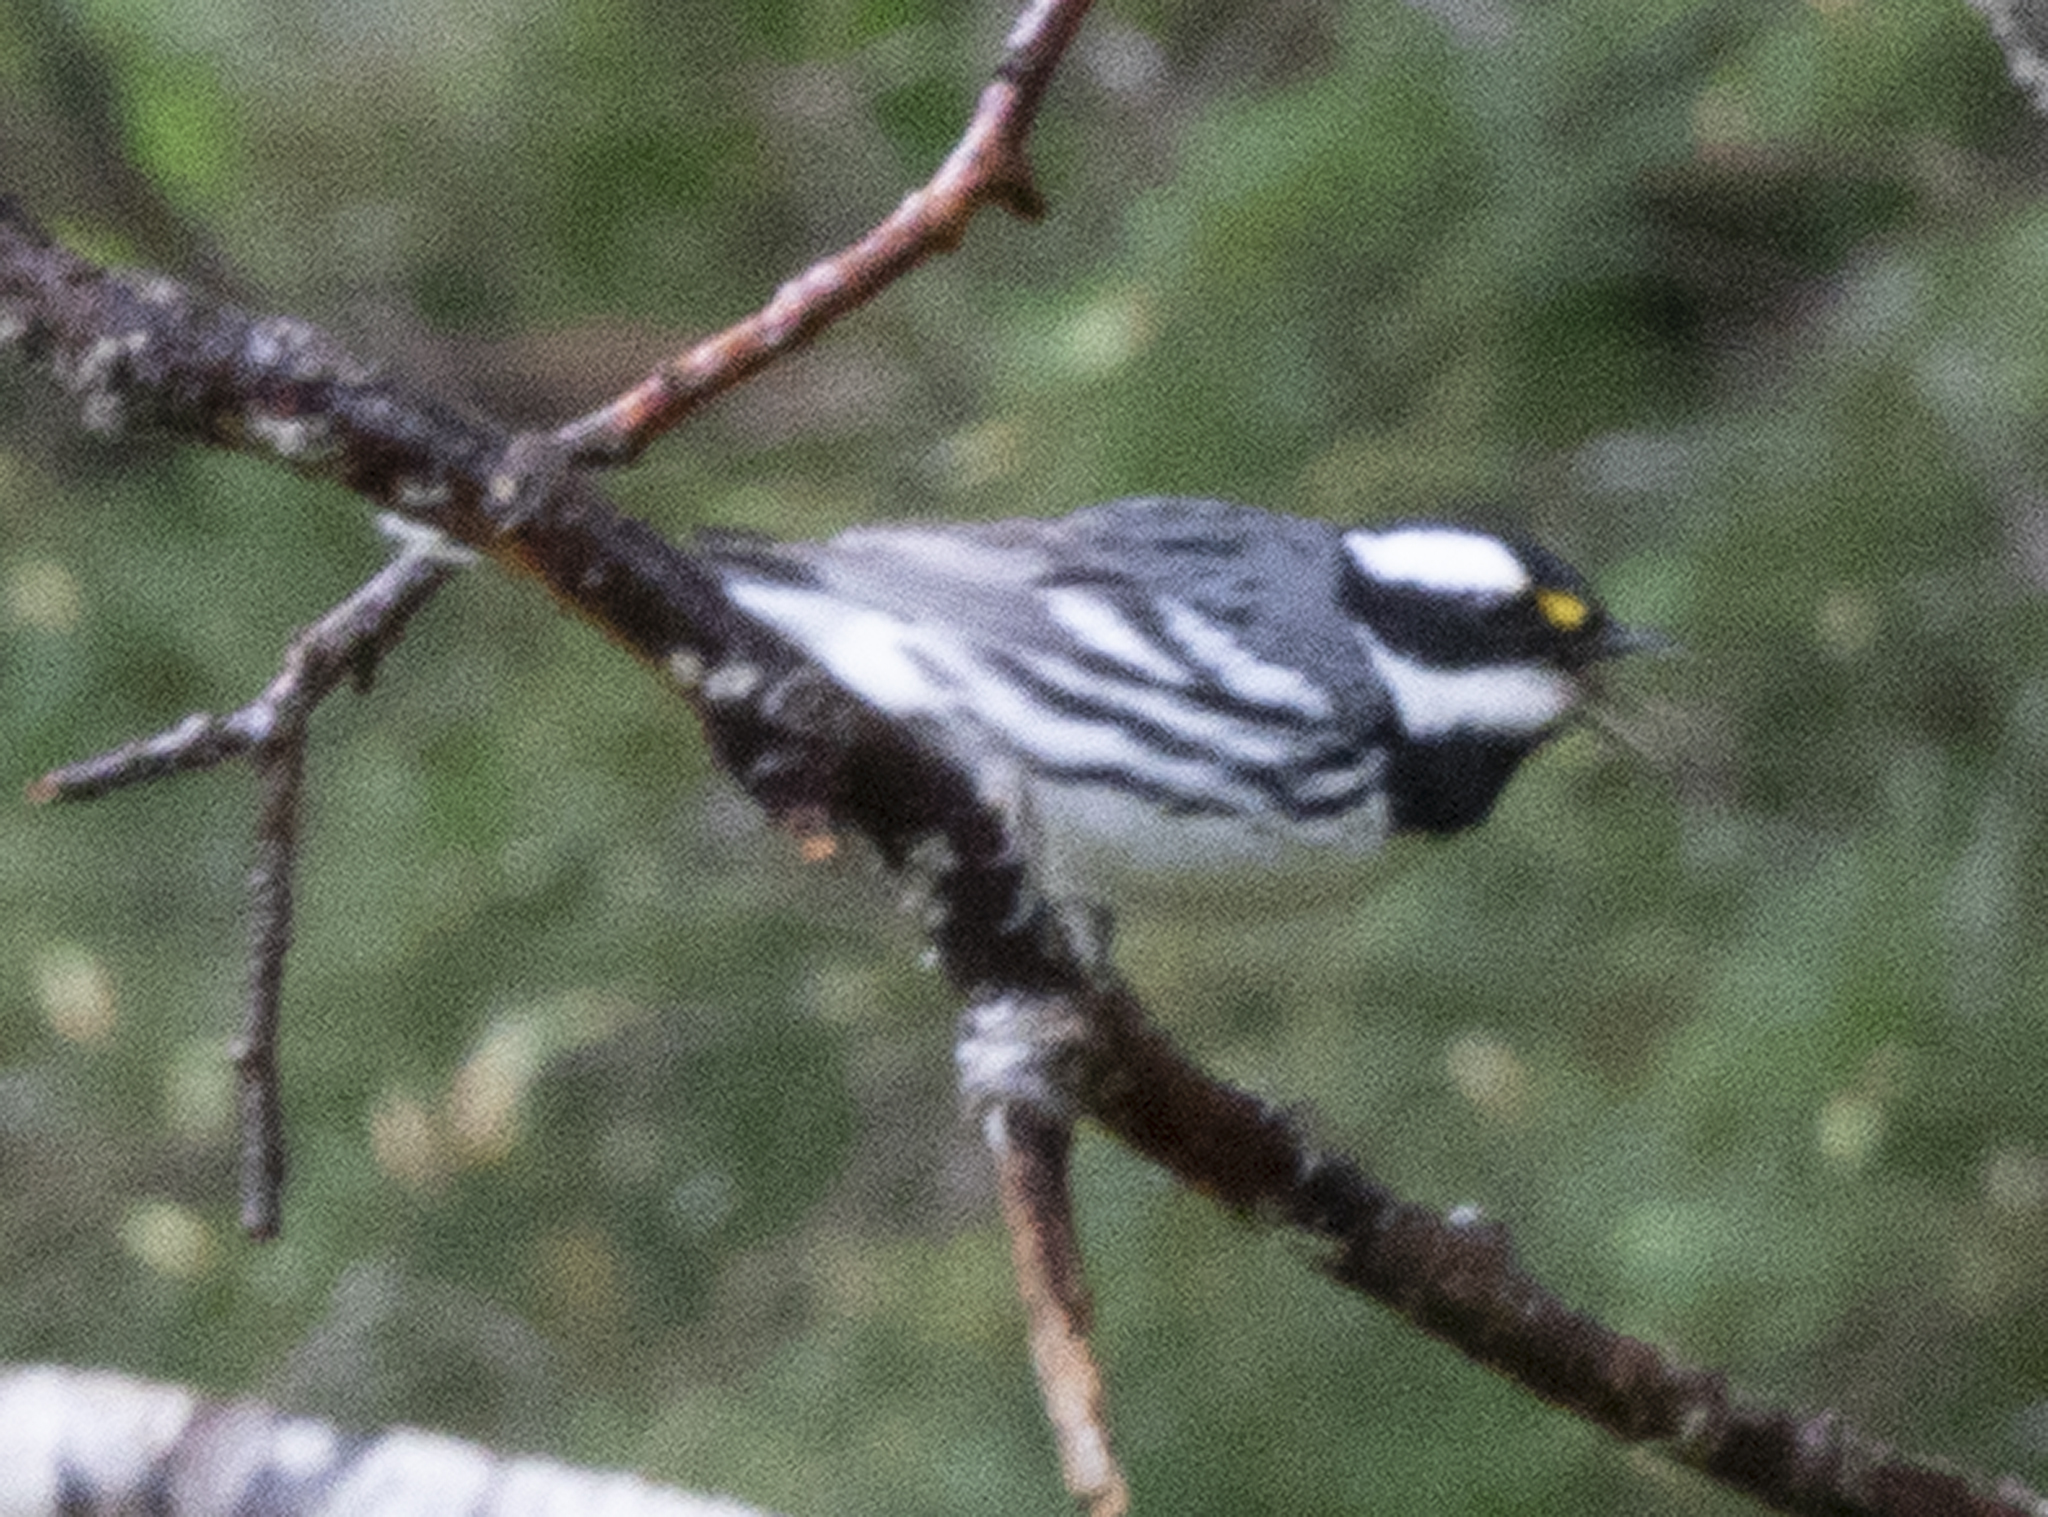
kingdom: Animalia
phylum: Chordata
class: Aves
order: Passeriformes
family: Parulidae
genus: Setophaga
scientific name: Setophaga nigrescens
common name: Black-throated gray warbler
